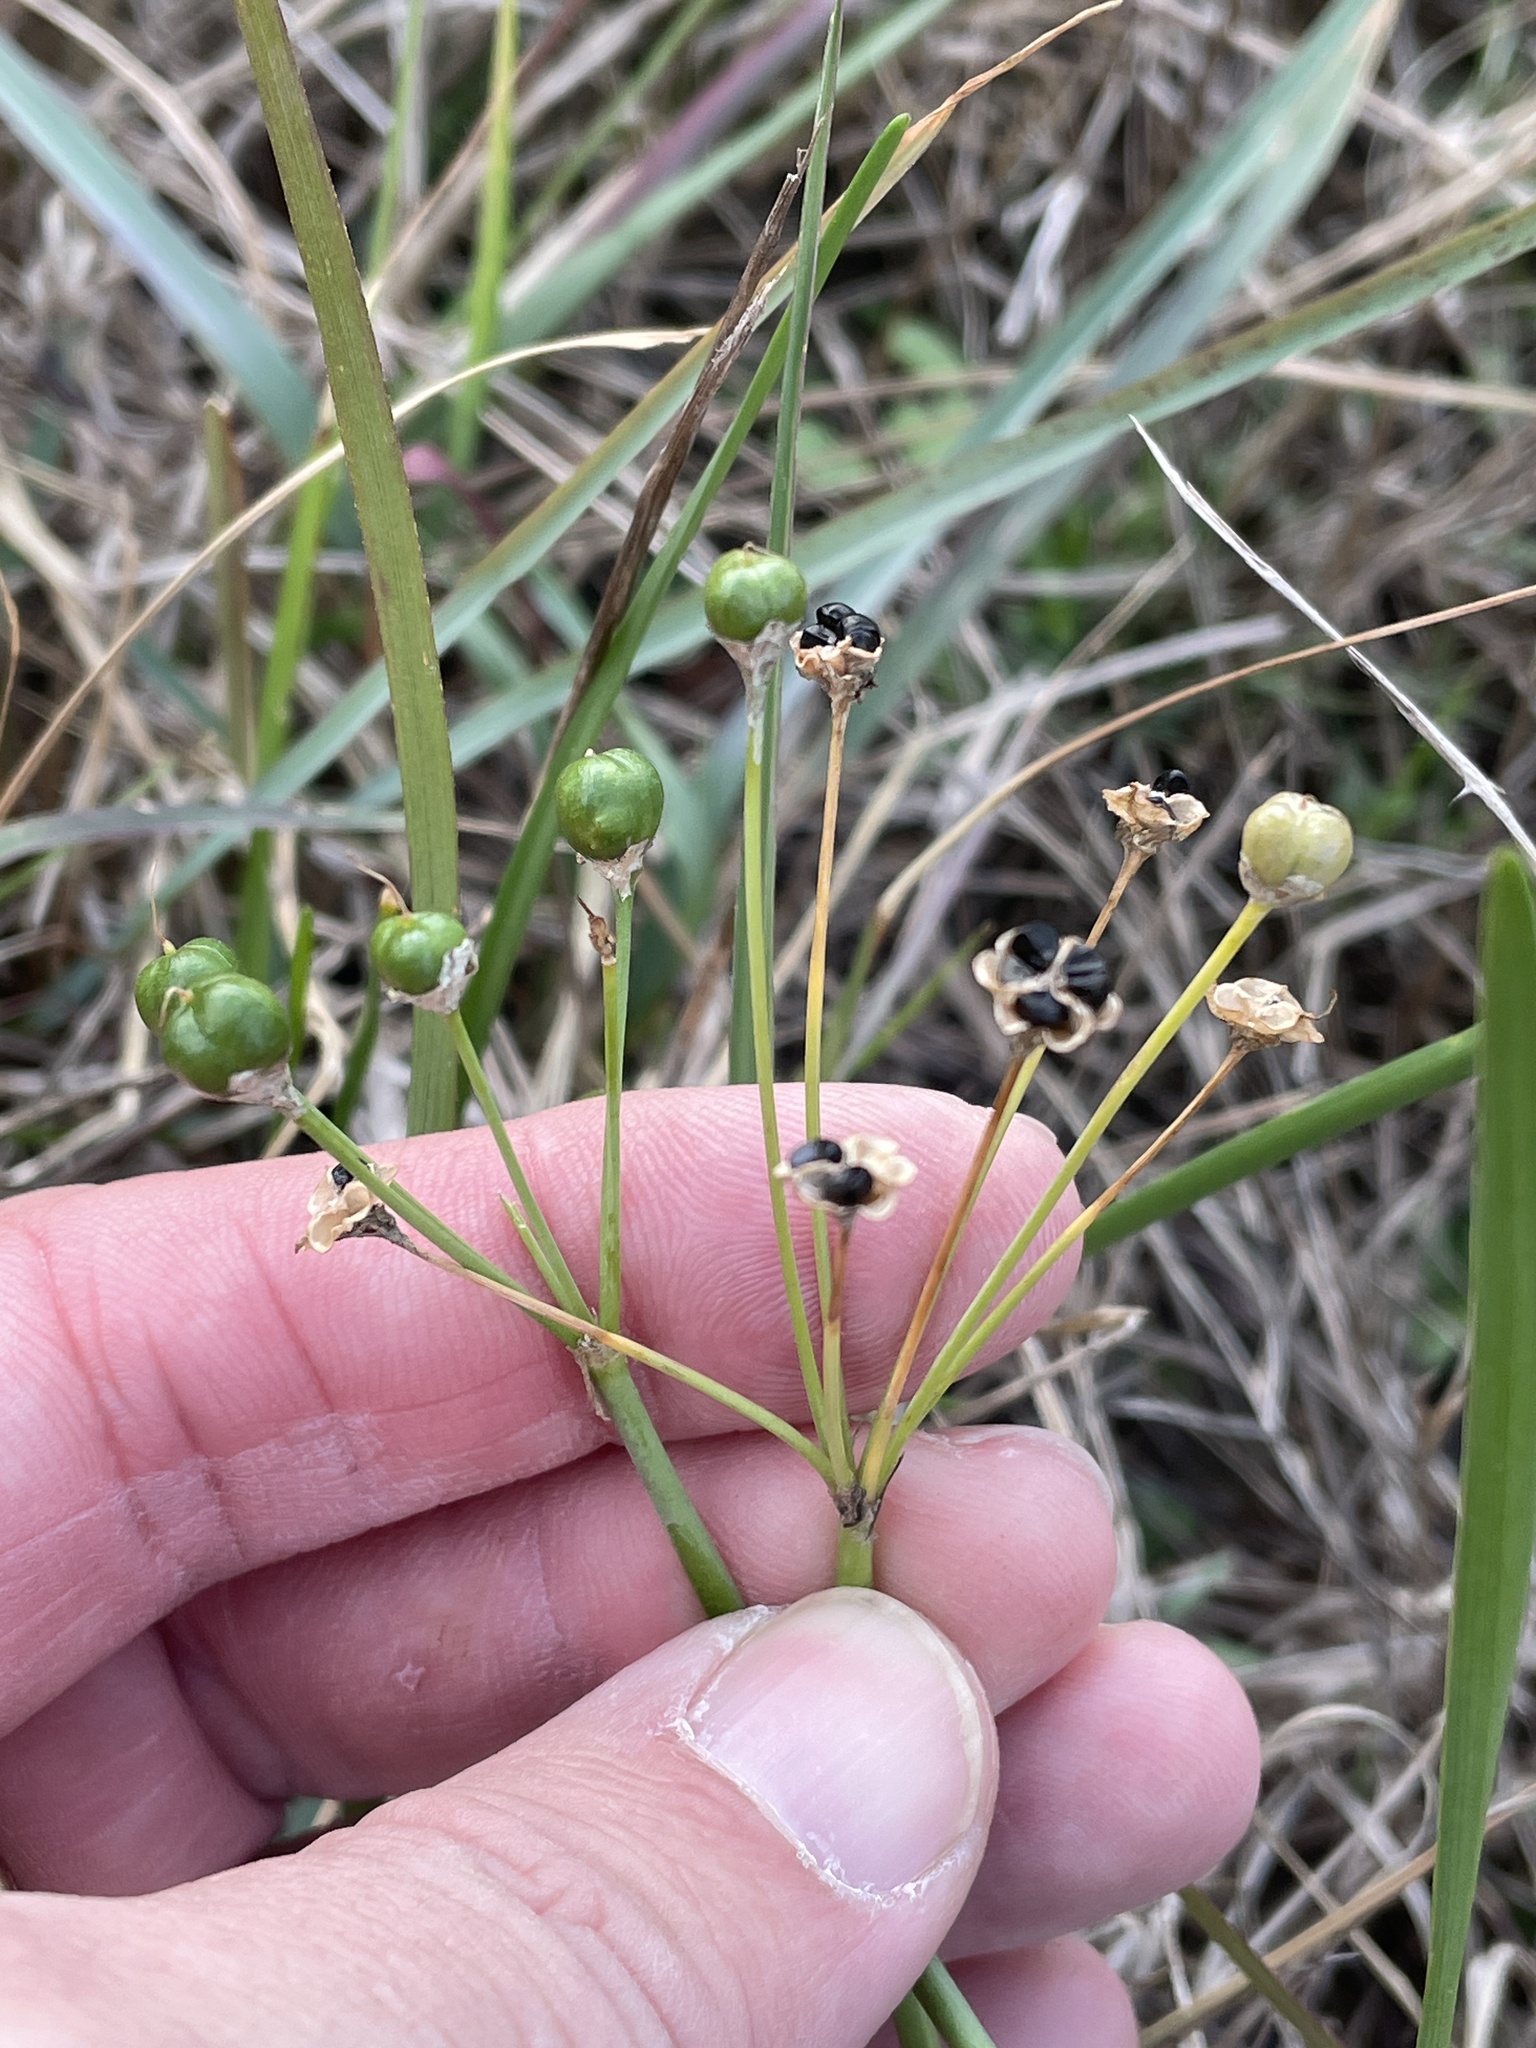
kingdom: Plantae
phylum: Tracheophyta
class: Liliopsida
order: Asparagales
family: Amaryllidaceae
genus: Nothoscordum
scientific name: Nothoscordum bivalve
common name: Crow-poison
